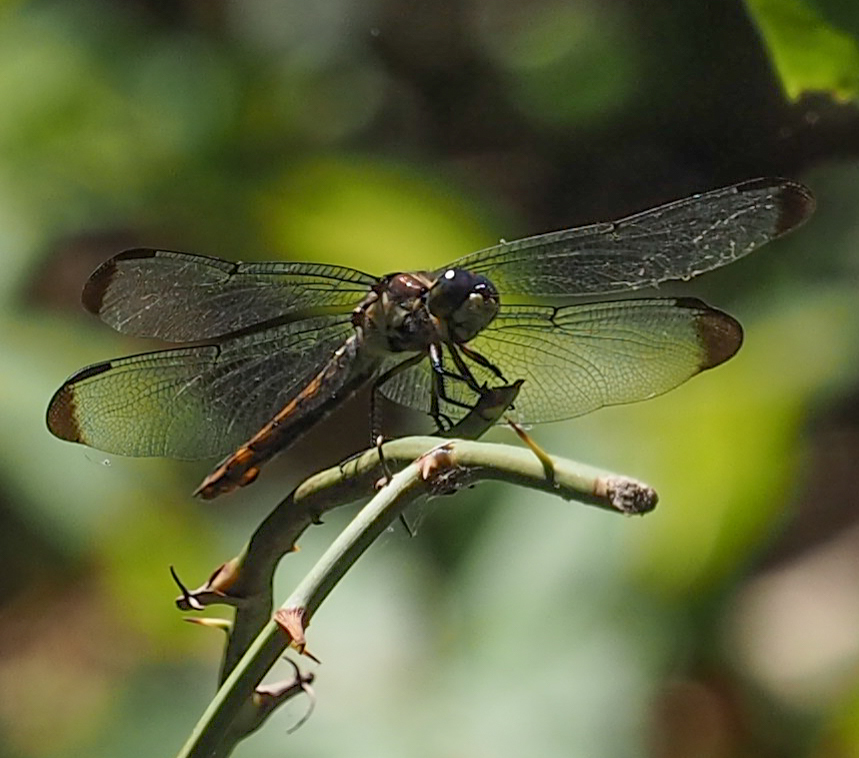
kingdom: Animalia
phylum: Arthropoda
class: Insecta
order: Odonata
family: Libellulidae
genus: Libellula
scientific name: Libellula vibrans
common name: Great blue skimmer
